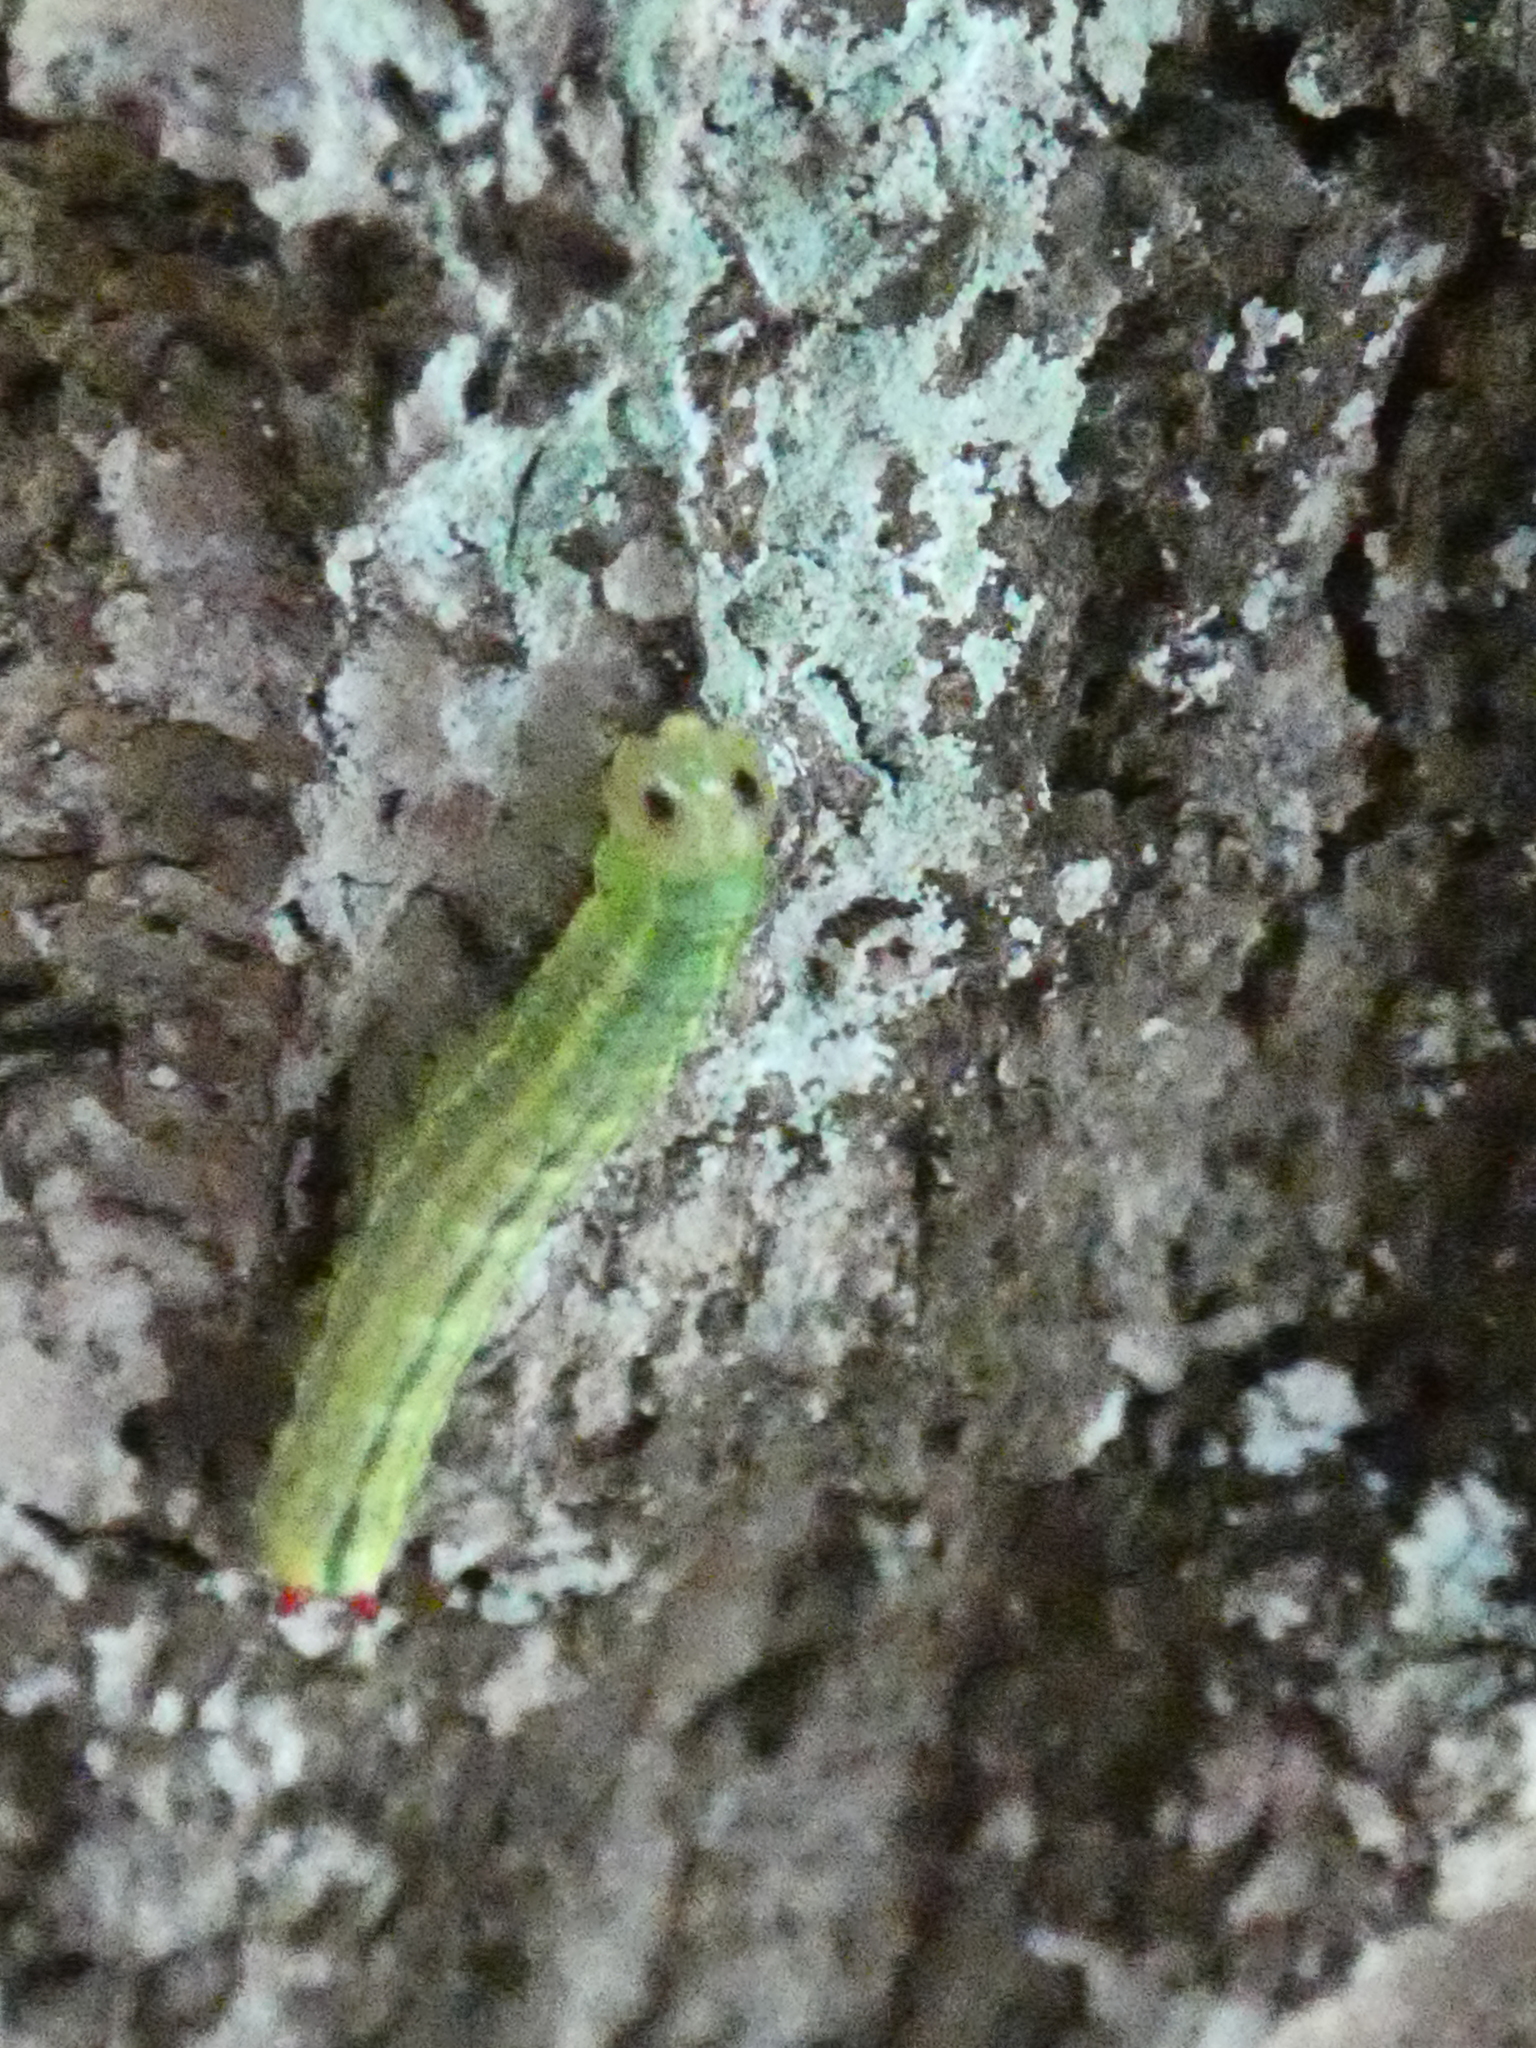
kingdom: Animalia
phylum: Arthropoda
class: Insecta
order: Lepidoptera
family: Notodontidae
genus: Ptilodon
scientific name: Ptilodon capucina
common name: Coxcomb prominent
